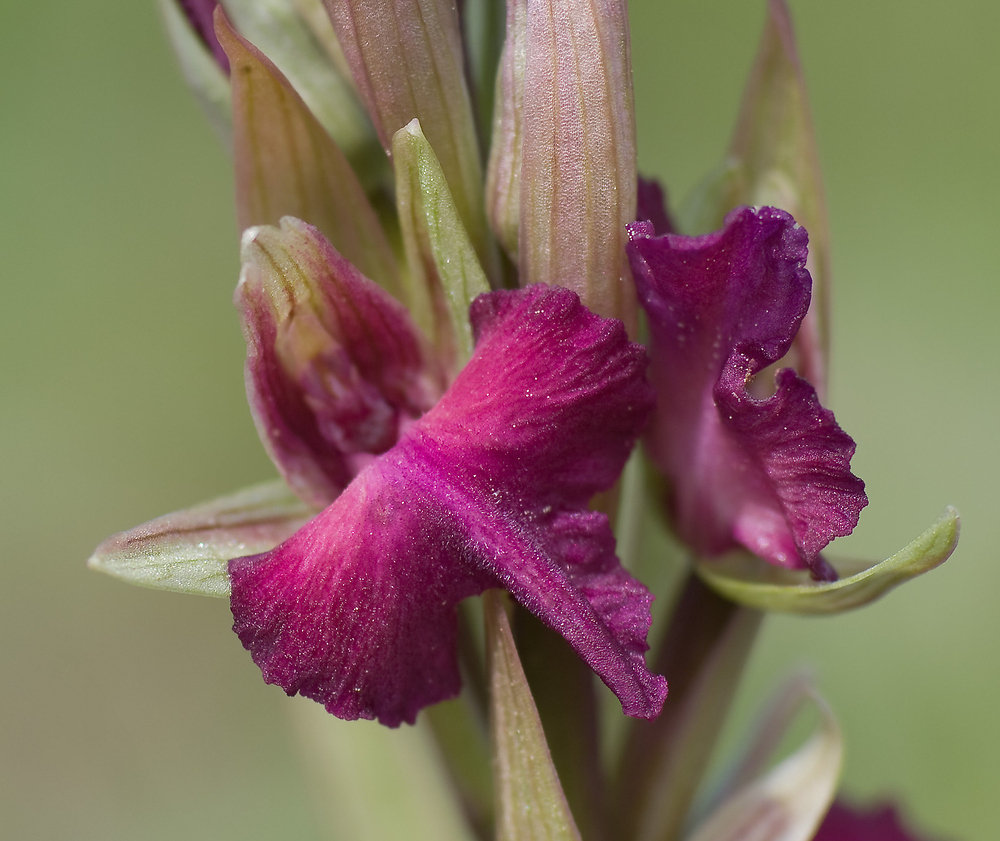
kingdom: Plantae
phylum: Tracheophyta
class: Liliopsida
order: Asparagales
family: Orchidaceae
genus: Serapicamptis
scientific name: Serapicamptis bevilacquae
